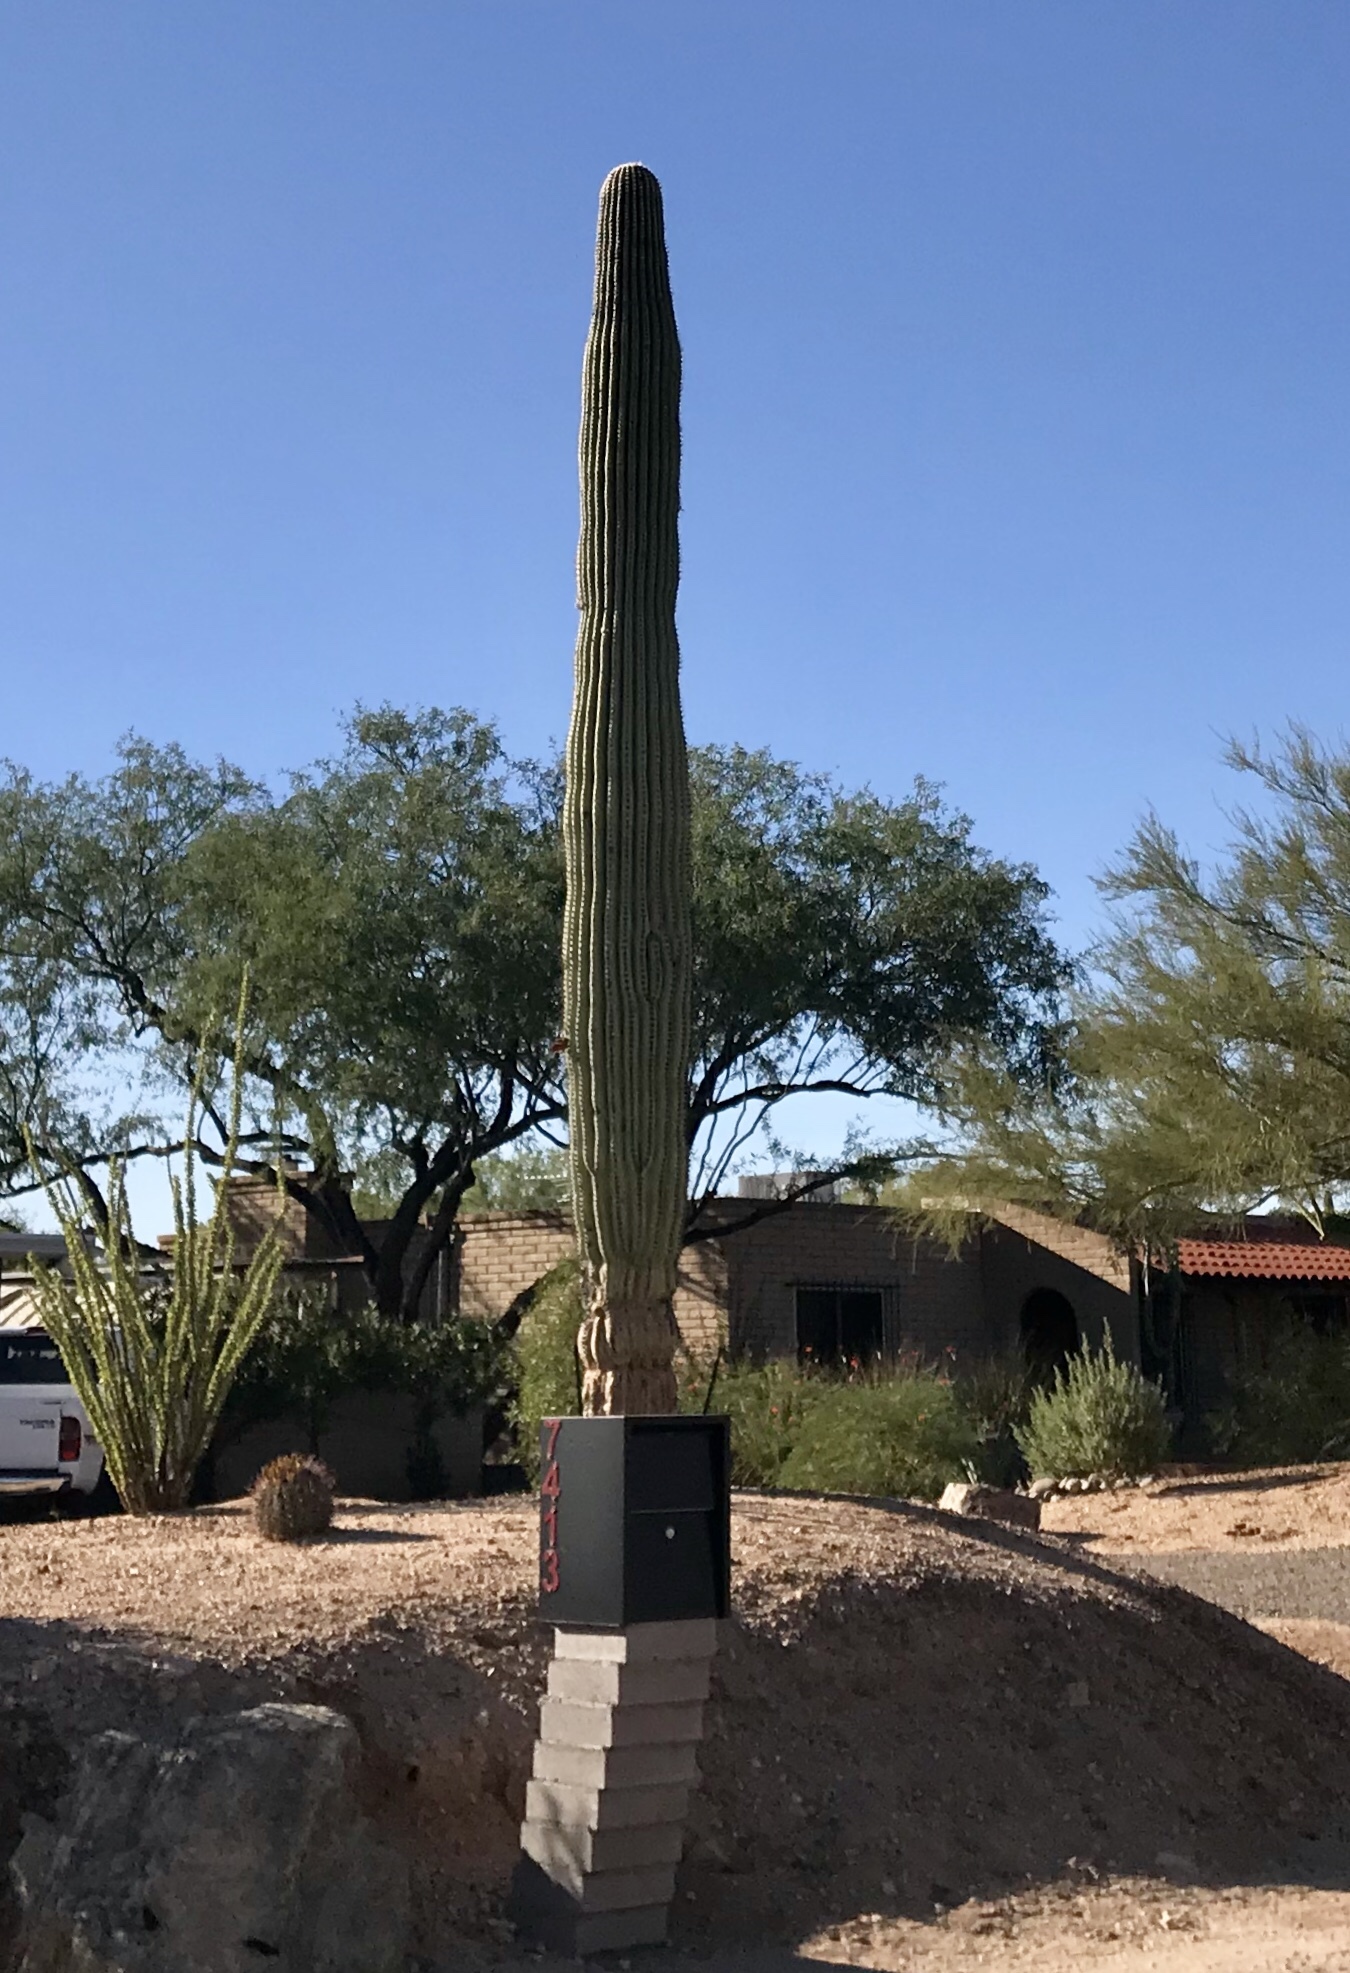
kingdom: Plantae
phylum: Tracheophyta
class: Magnoliopsida
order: Caryophyllales
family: Cactaceae
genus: Carnegiea
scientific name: Carnegiea gigantea
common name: Saguaro
